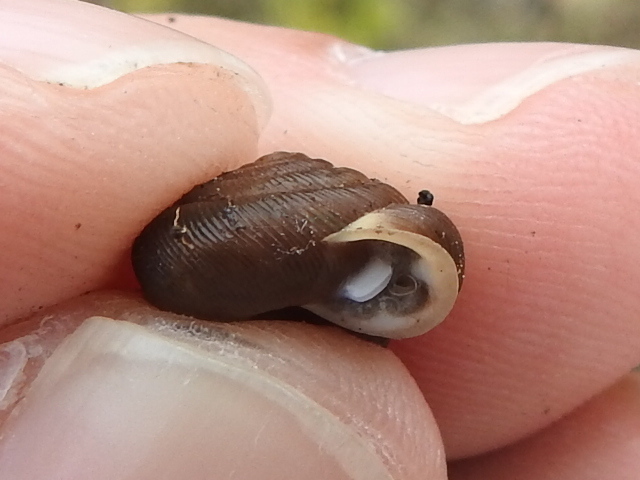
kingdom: Animalia
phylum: Mollusca
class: Gastropoda
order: Stylommatophora
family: Polygyridae
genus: Triodopsis
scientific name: Triodopsis hopetonensis
